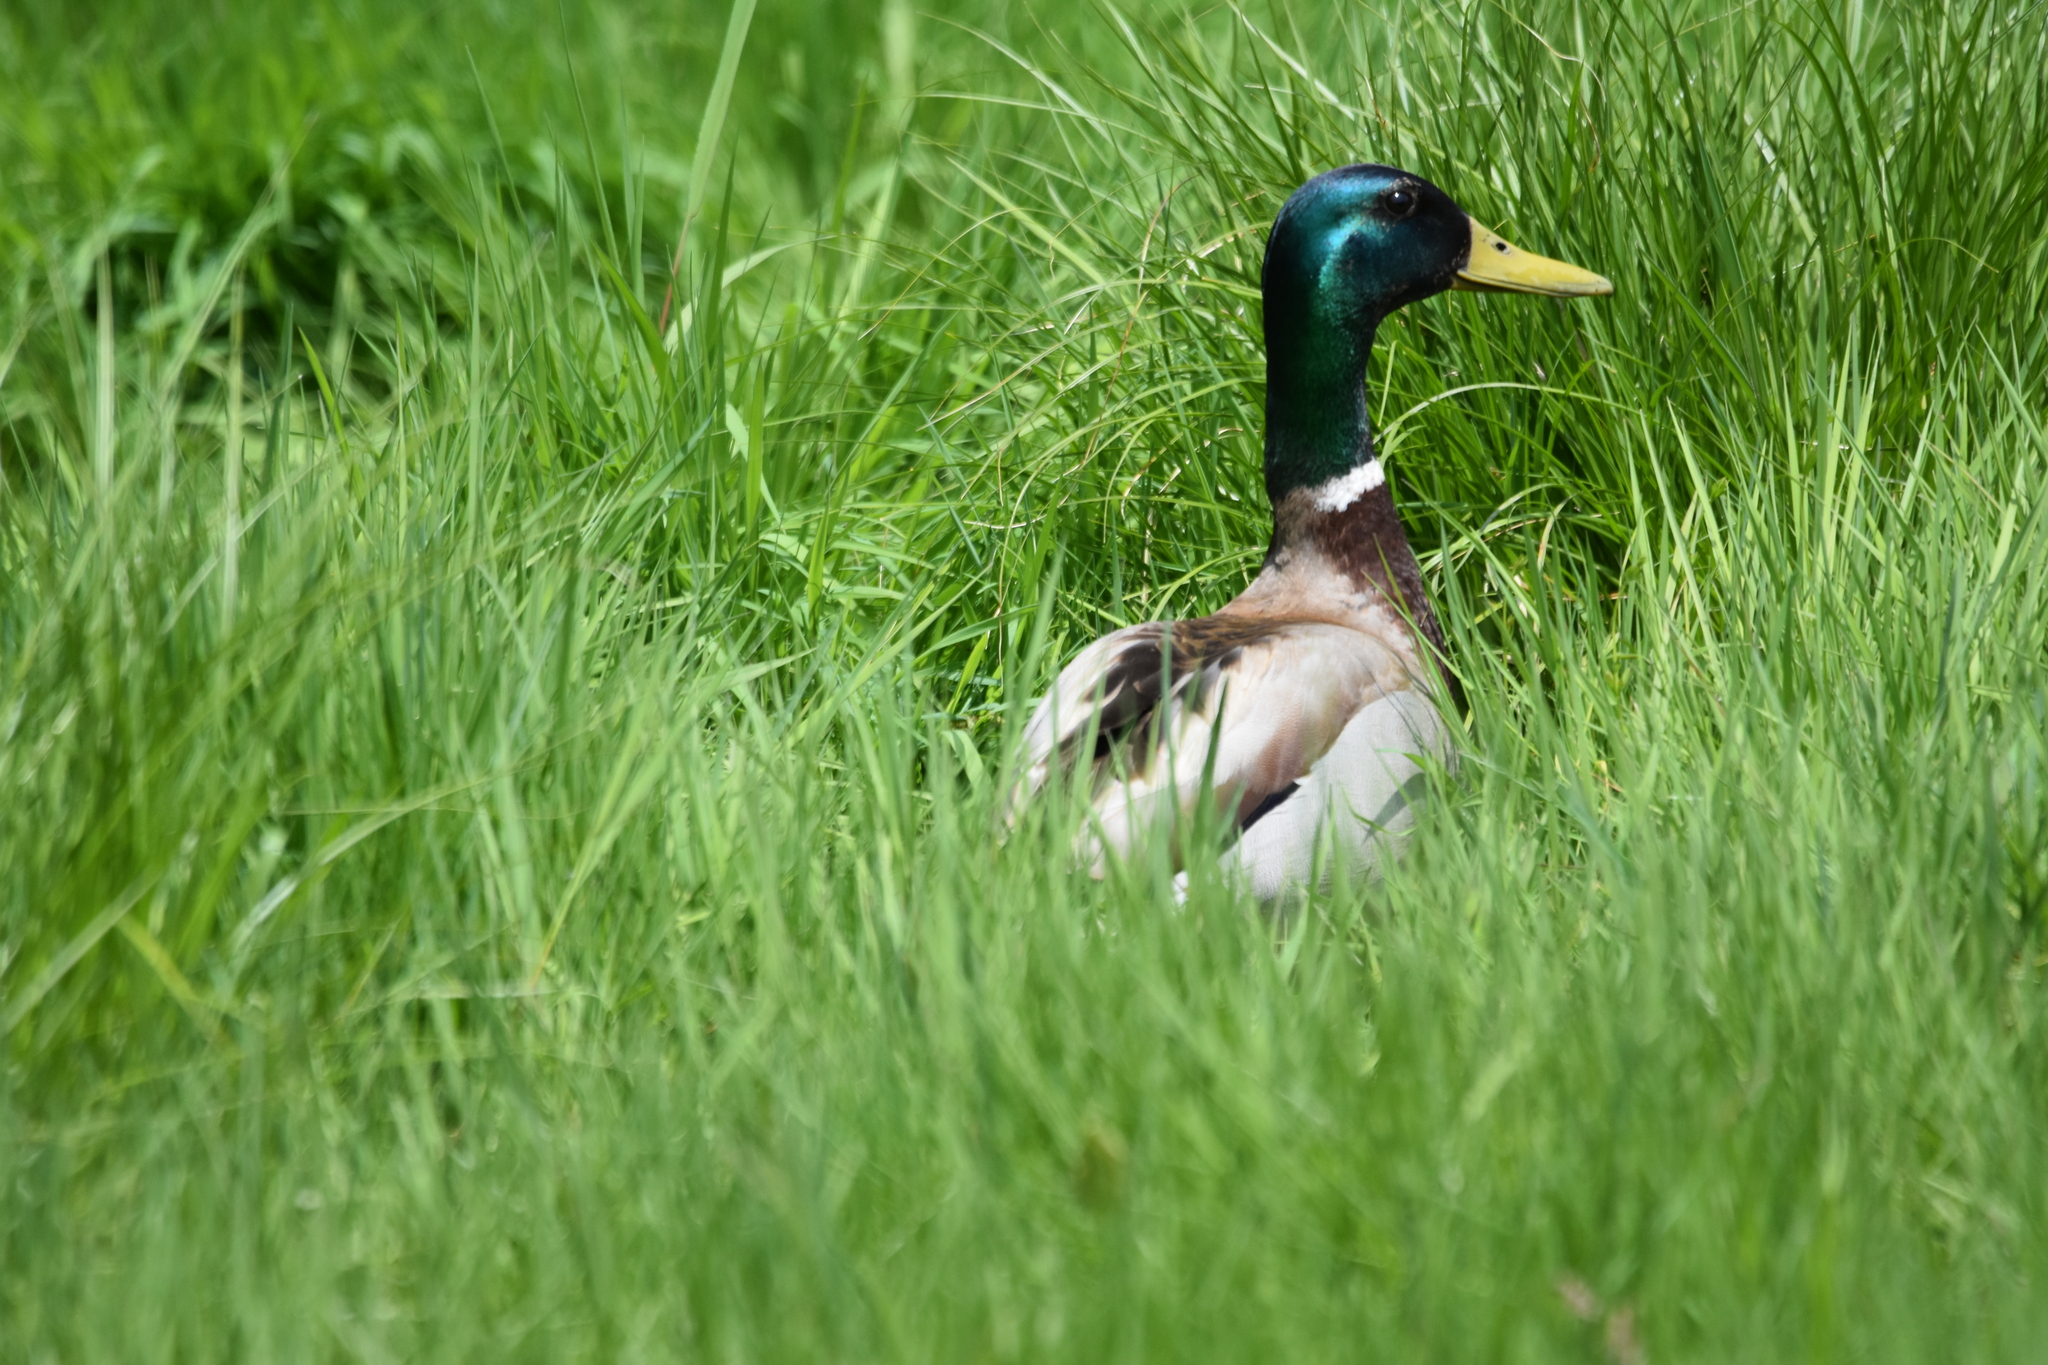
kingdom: Animalia
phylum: Chordata
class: Aves
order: Anseriformes
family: Anatidae
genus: Anas
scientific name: Anas platyrhynchos
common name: Mallard
